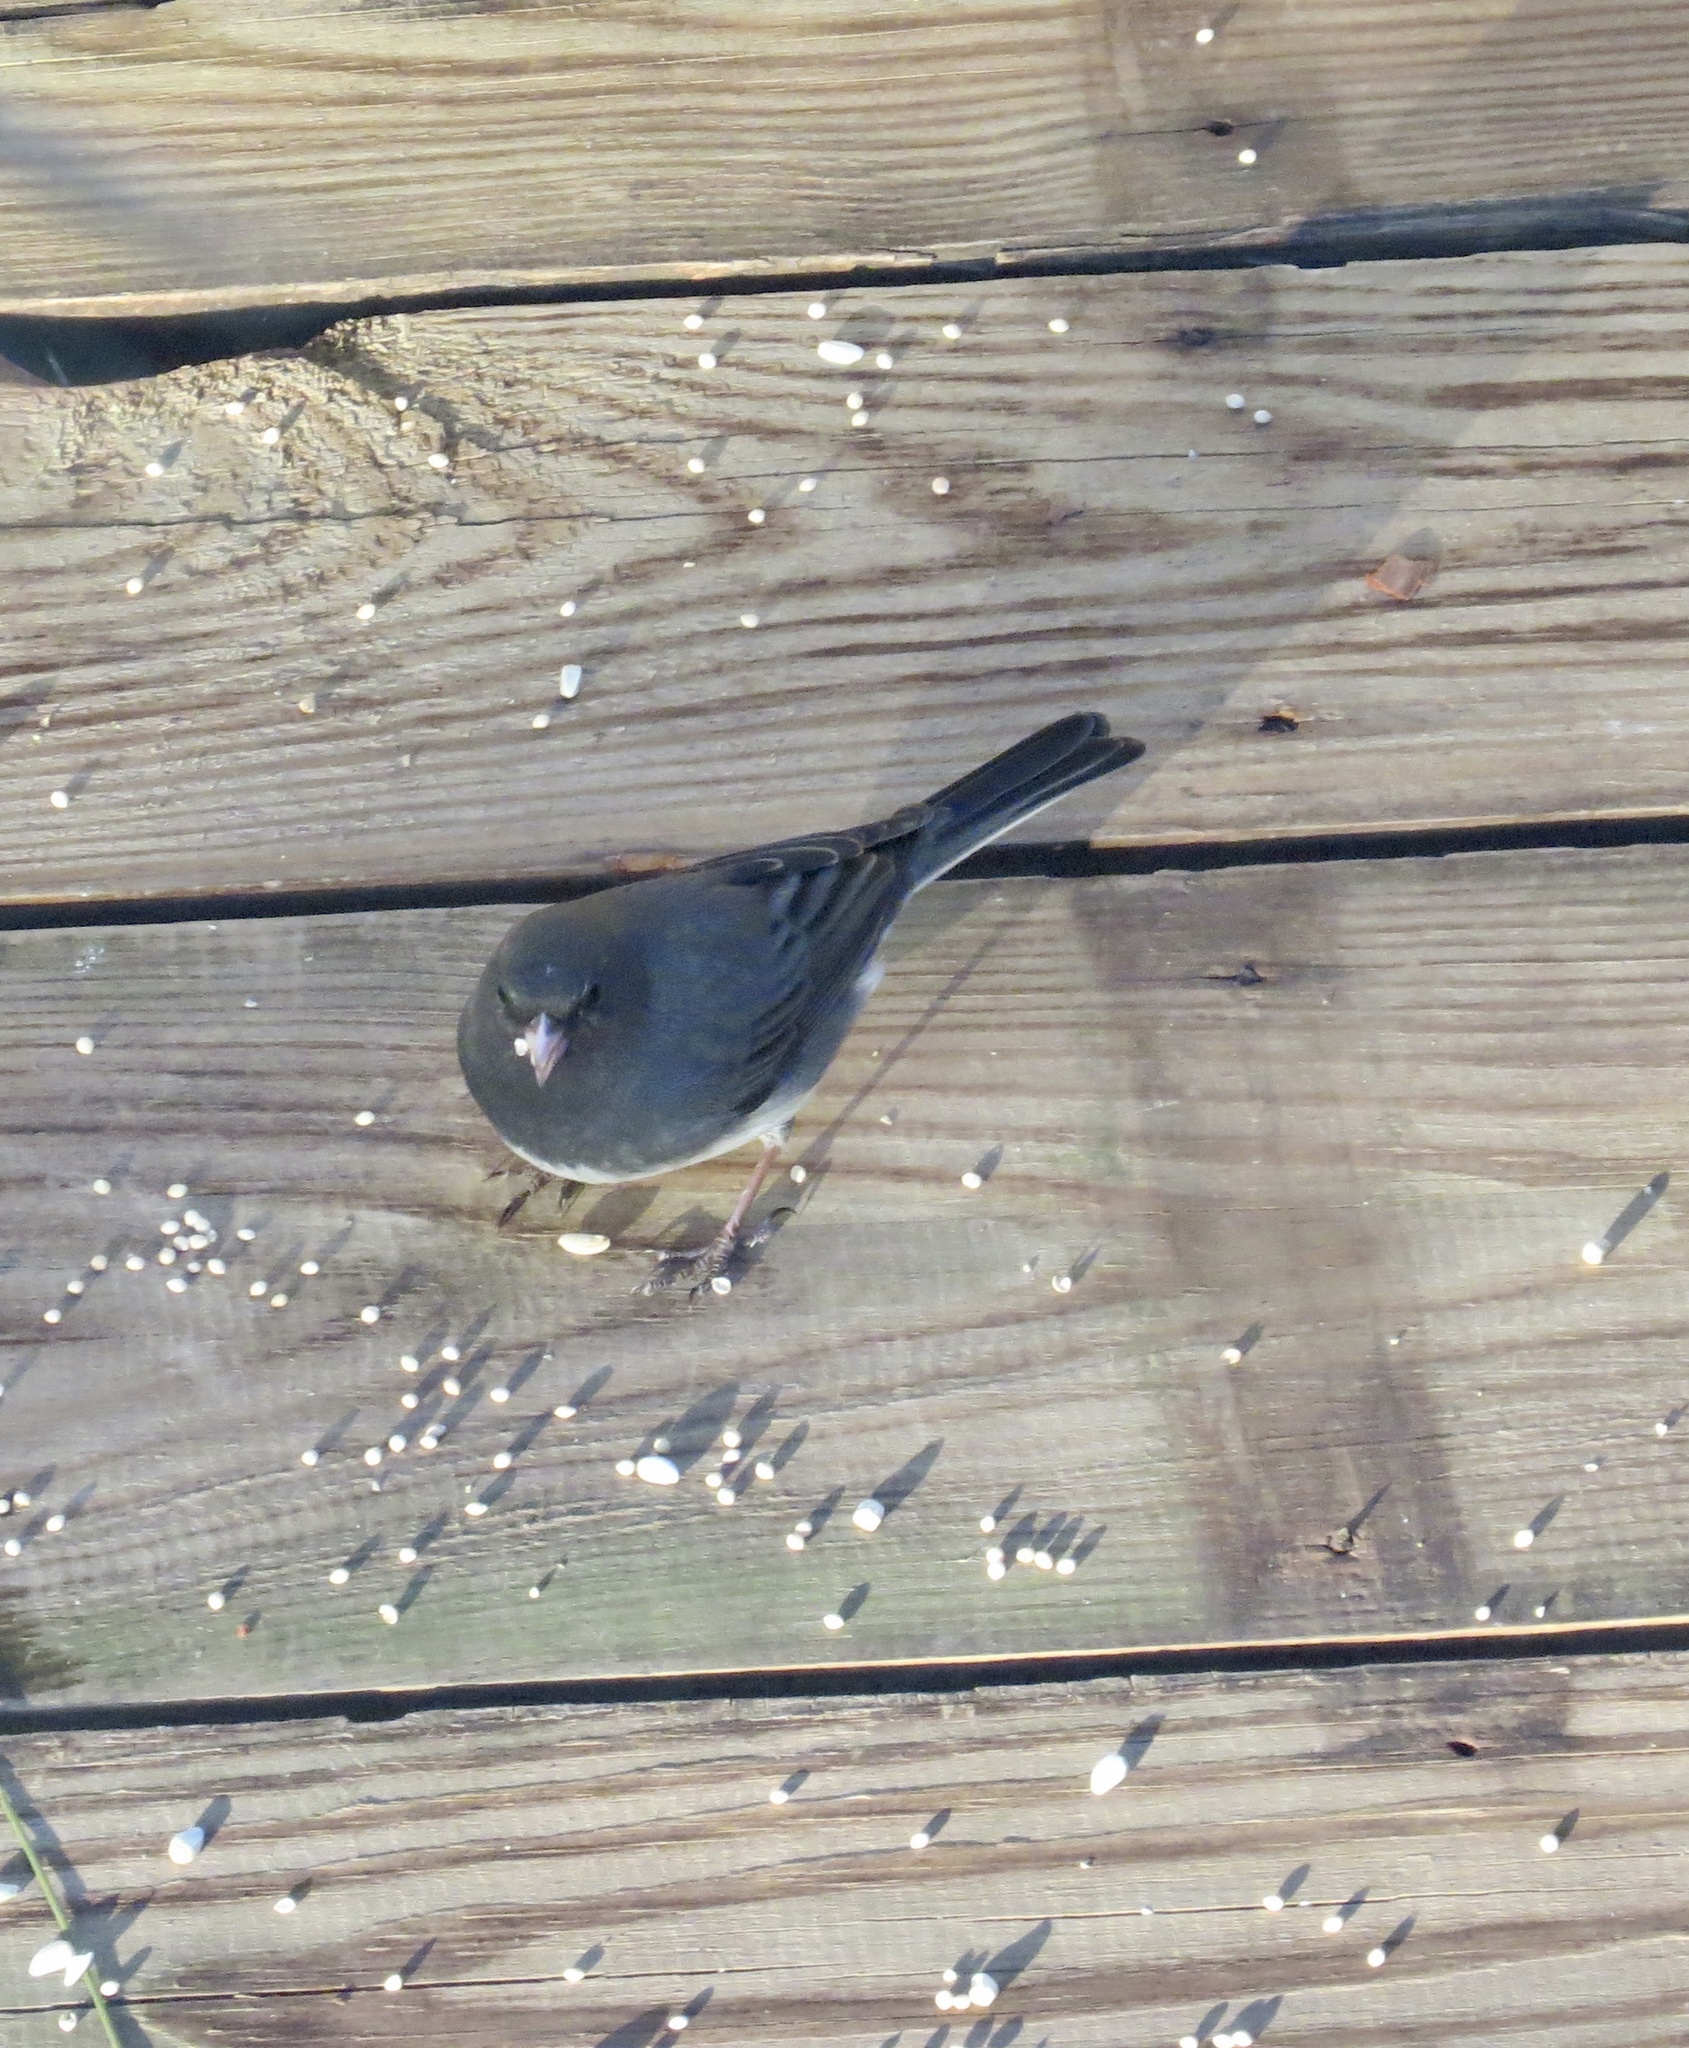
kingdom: Animalia
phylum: Chordata
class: Aves
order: Passeriformes
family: Passerellidae
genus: Junco
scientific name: Junco hyemalis
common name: Dark-eyed junco
